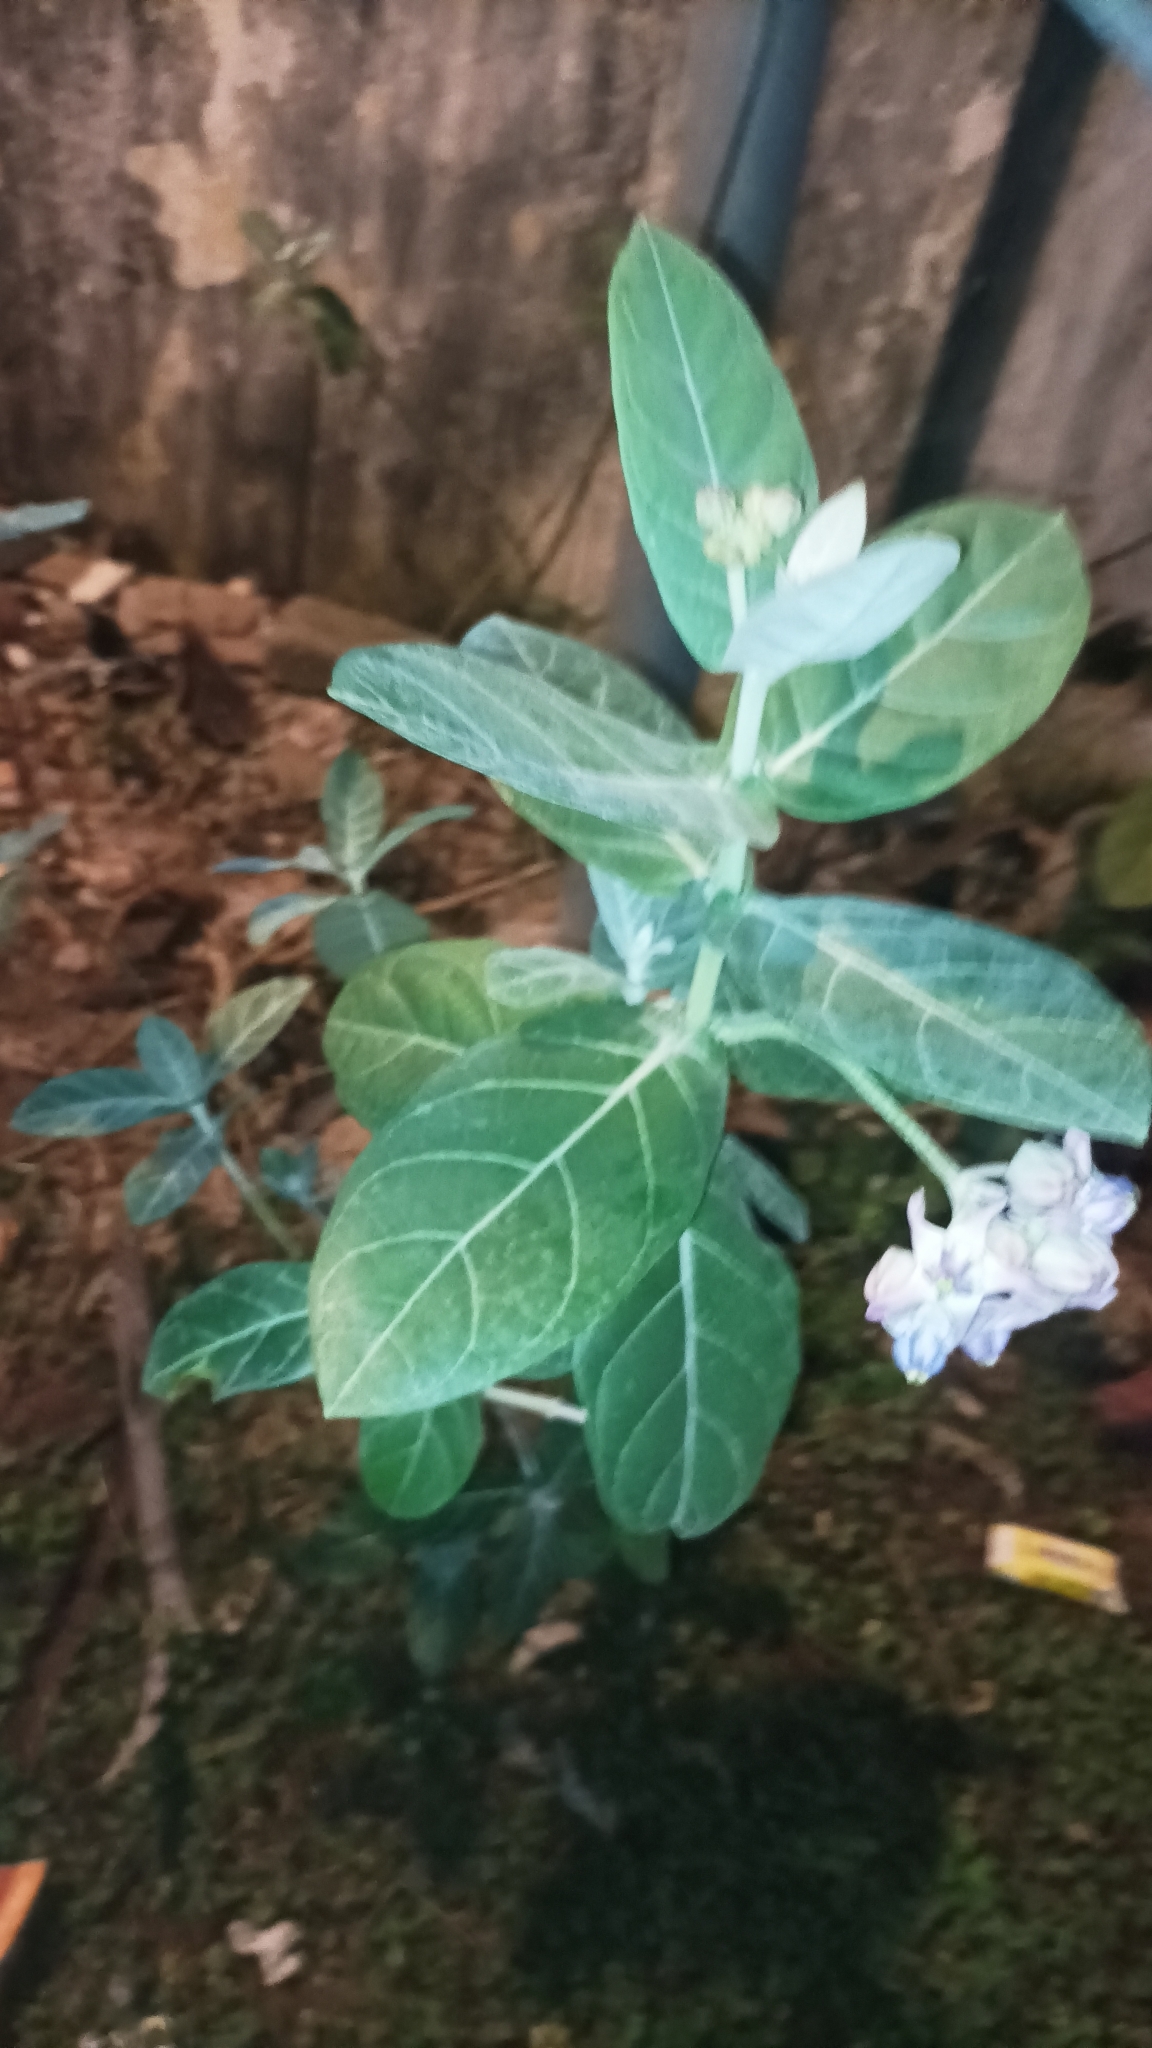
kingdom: Plantae
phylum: Tracheophyta
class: Magnoliopsida
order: Gentianales
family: Apocynaceae
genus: Calotropis
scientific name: Calotropis gigantea
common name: Crown flower
